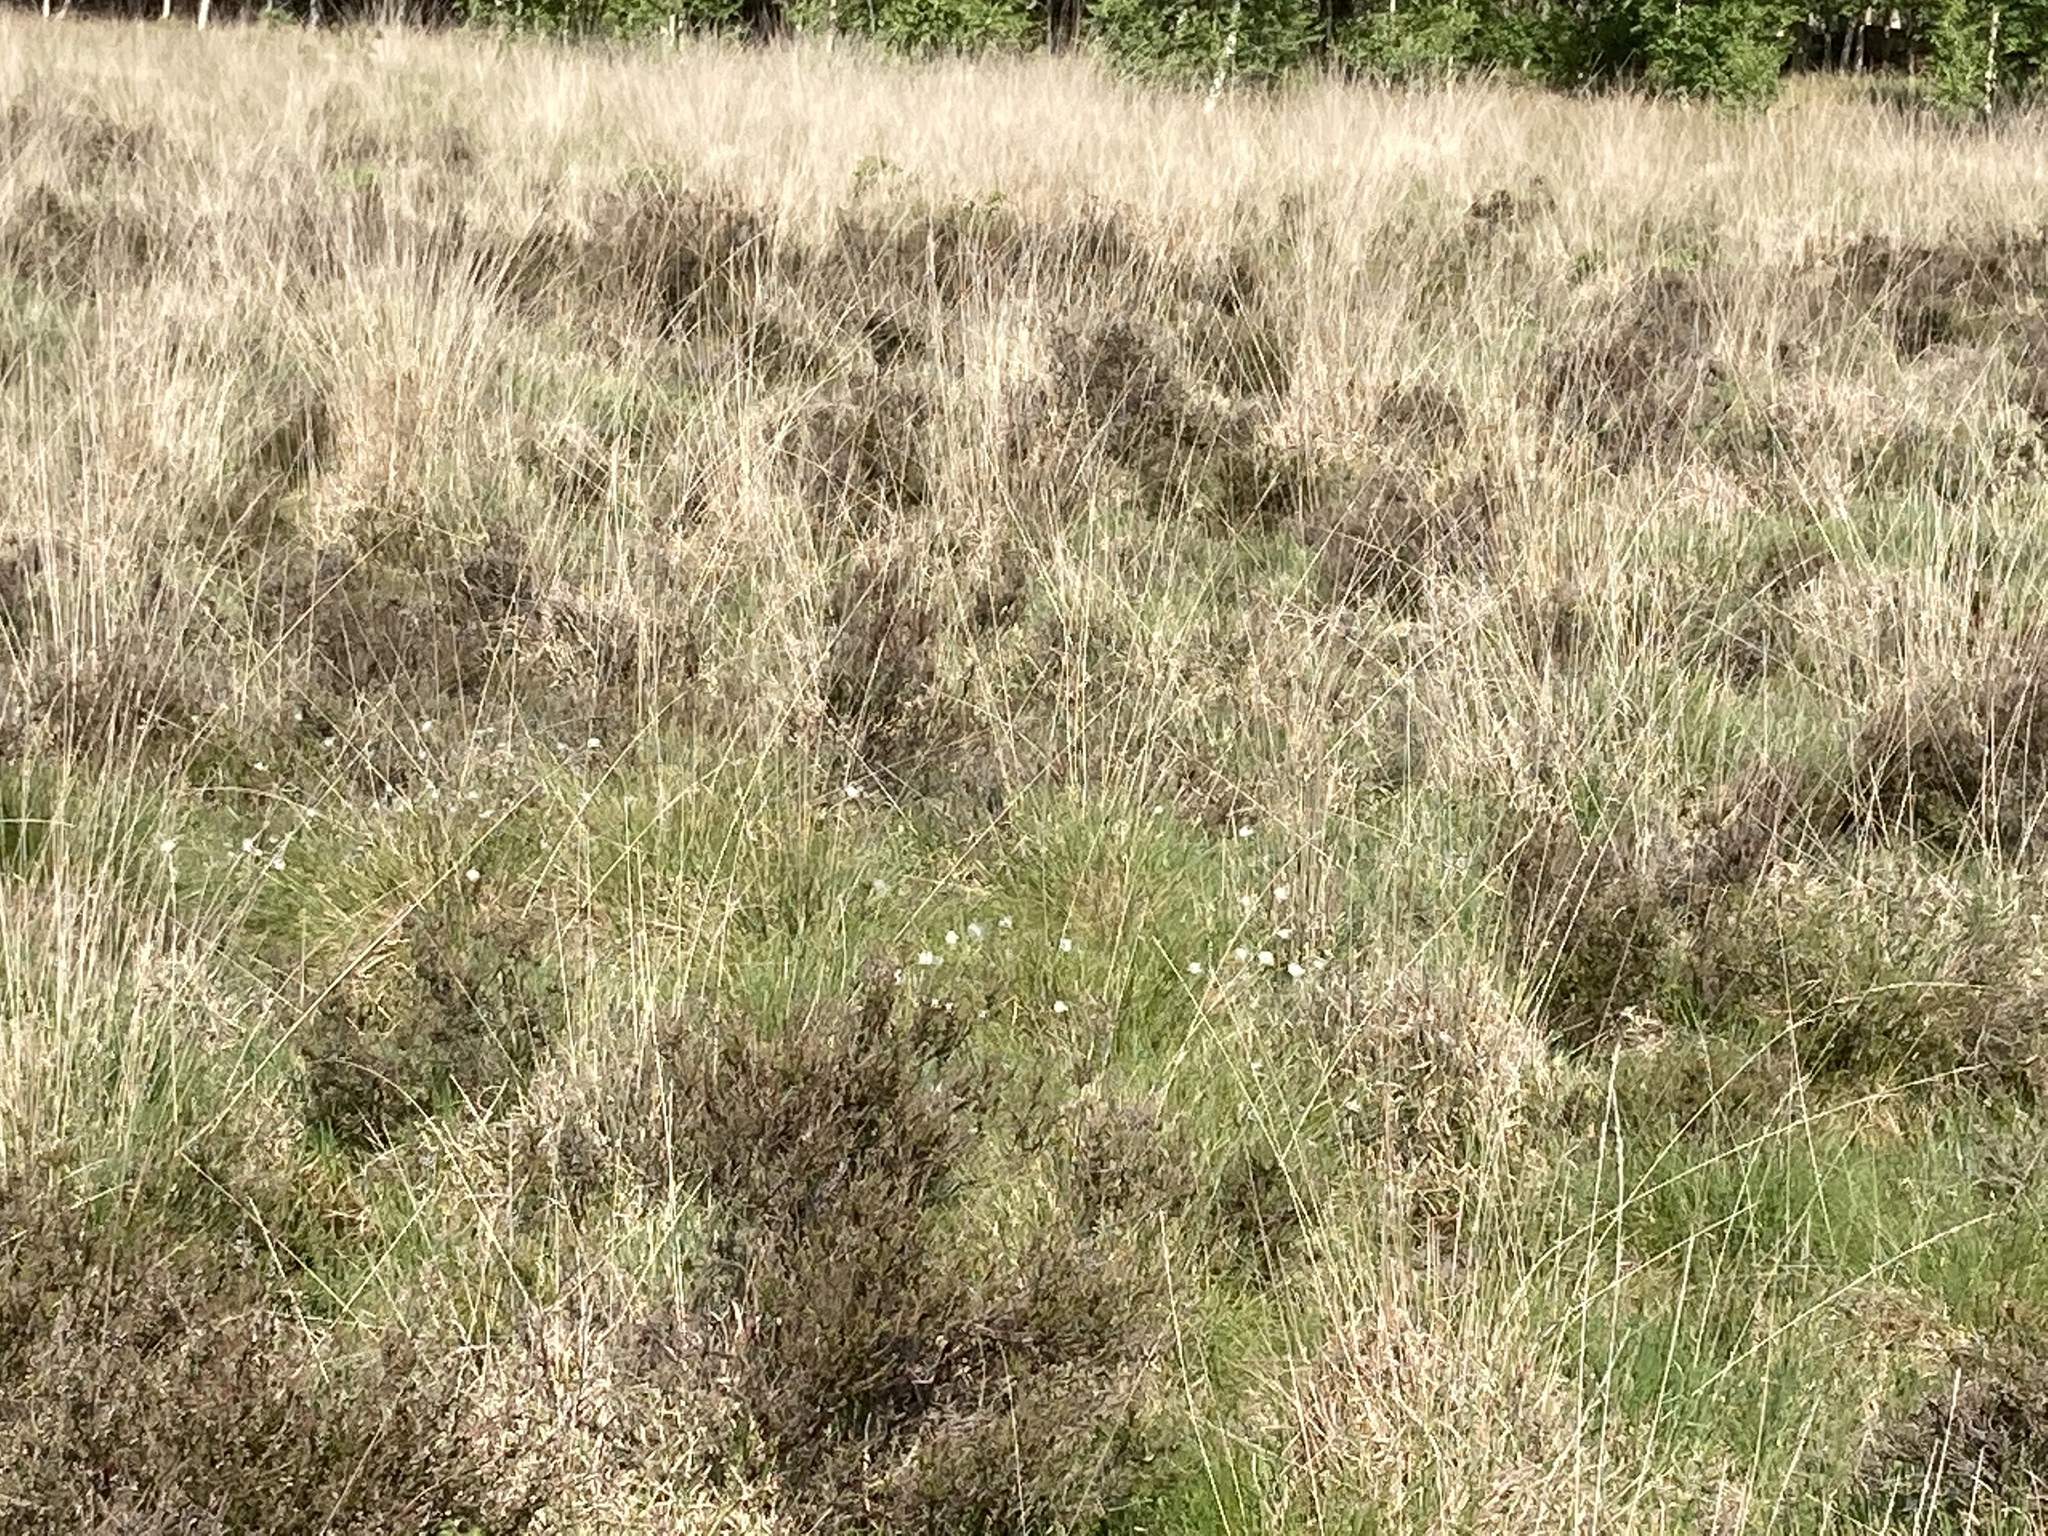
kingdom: Plantae
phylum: Tracheophyta
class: Liliopsida
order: Poales
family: Cyperaceae
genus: Eriophorum
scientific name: Eriophorum vaginatum
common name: Hare's-tail cottongrass
